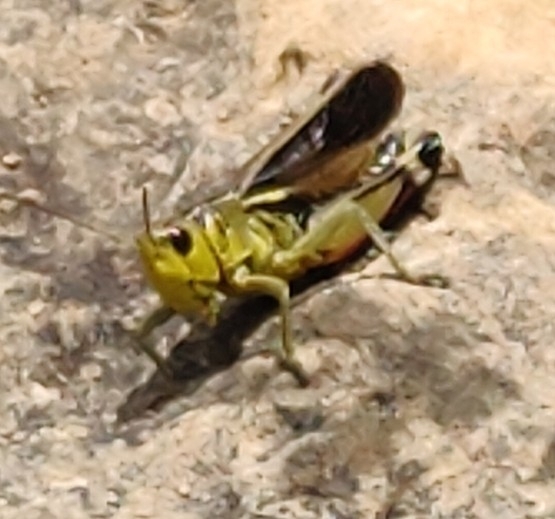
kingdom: Animalia
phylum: Arthropoda
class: Insecta
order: Orthoptera
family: Acrididae
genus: Arcyptera
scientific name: Arcyptera fusca
